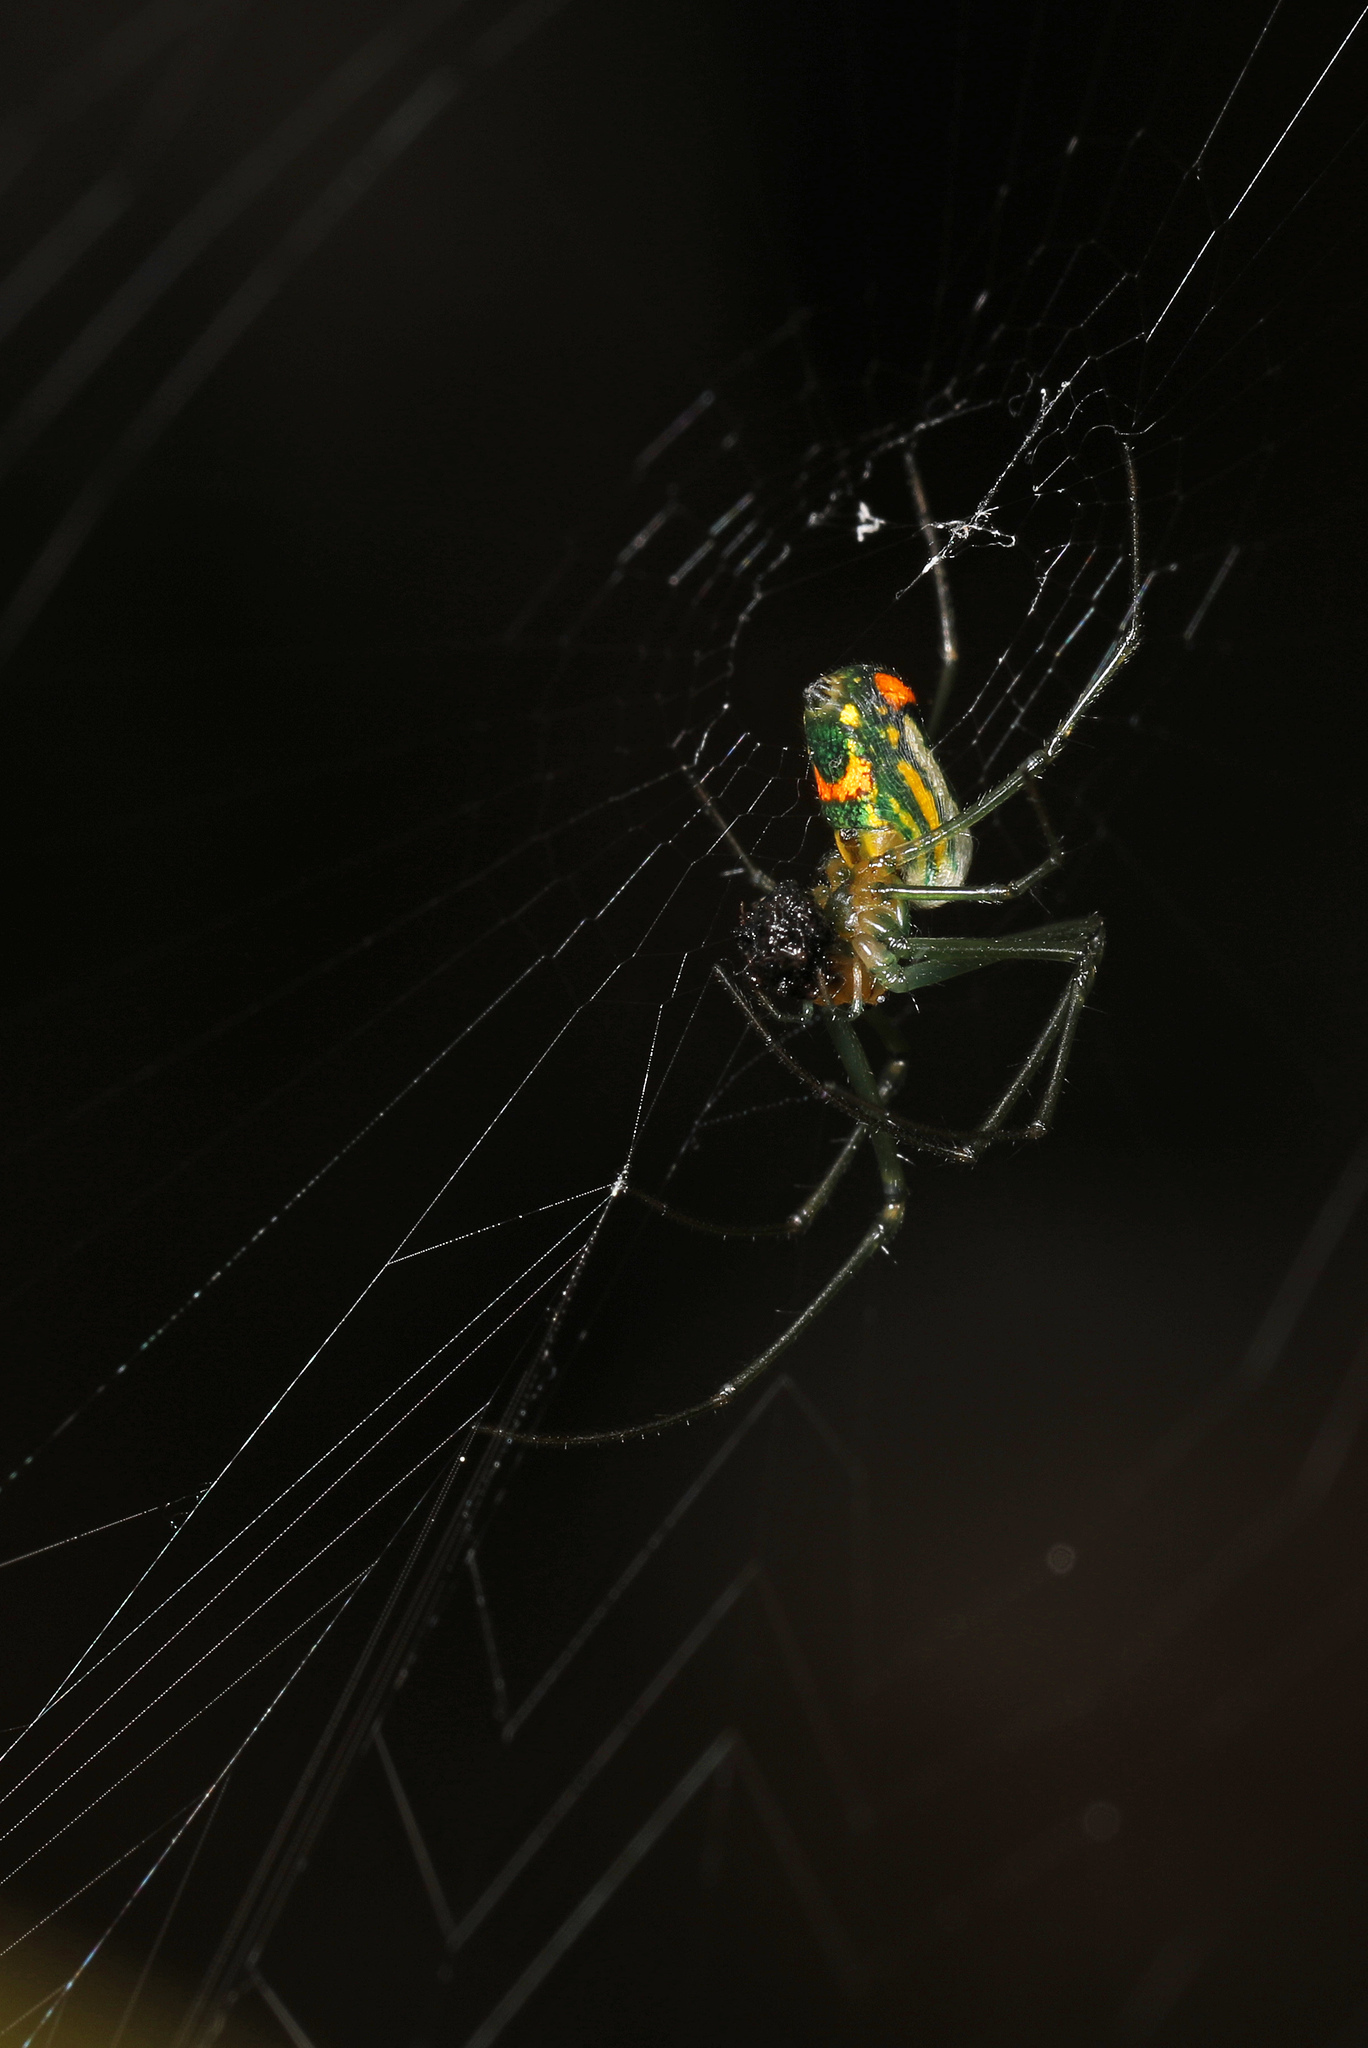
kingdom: Animalia
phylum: Arthropoda
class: Arachnida
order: Araneae
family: Tetragnathidae
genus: Leucauge
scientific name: Leucauge argyrobapta
